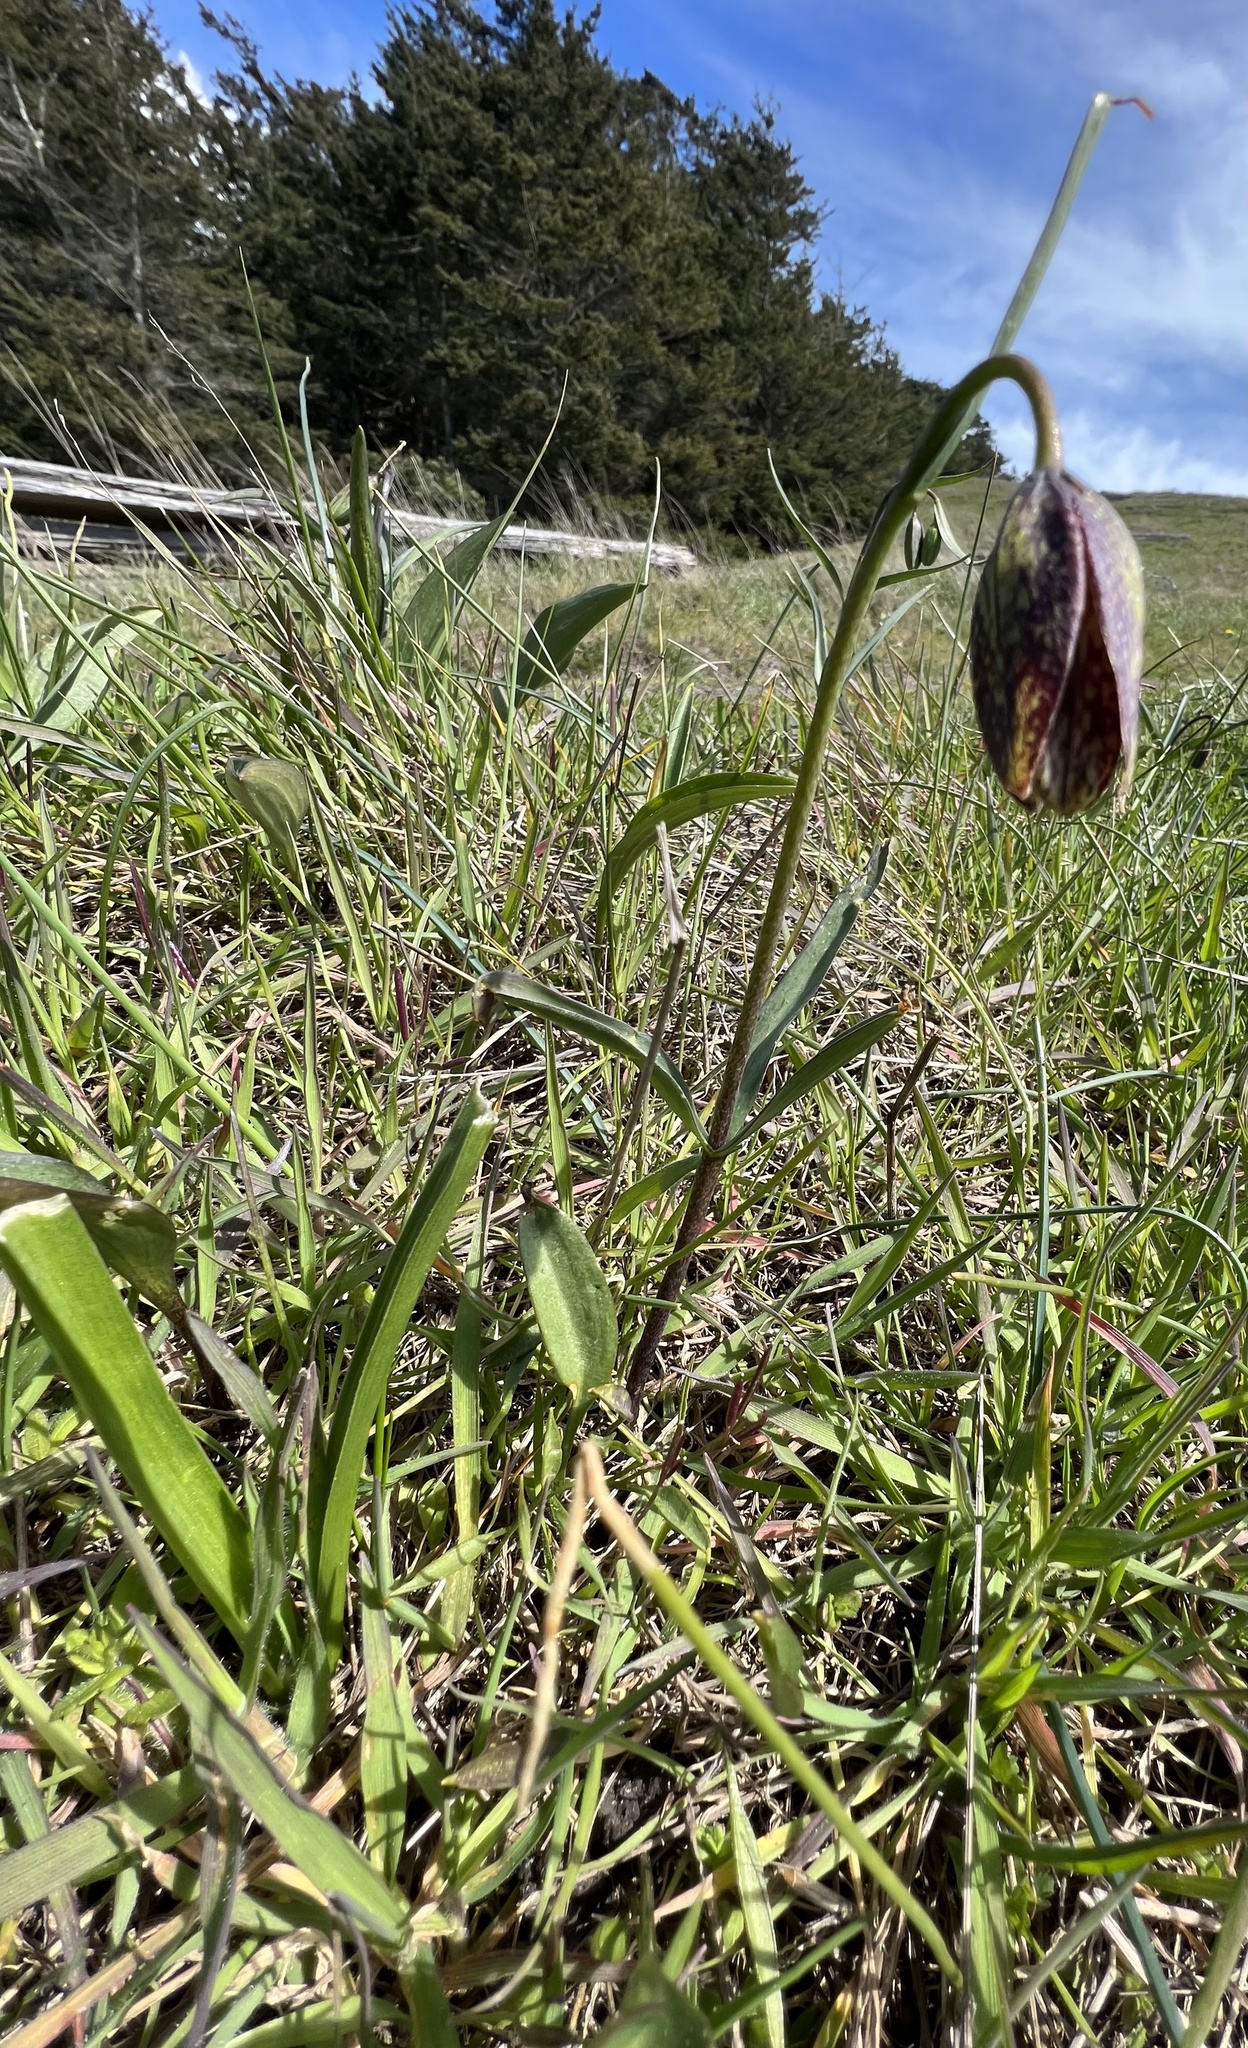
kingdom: Plantae
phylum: Tracheophyta
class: Liliopsida
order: Liliales
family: Liliaceae
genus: Fritillaria
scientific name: Fritillaria affinis
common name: Ojai fritillary
